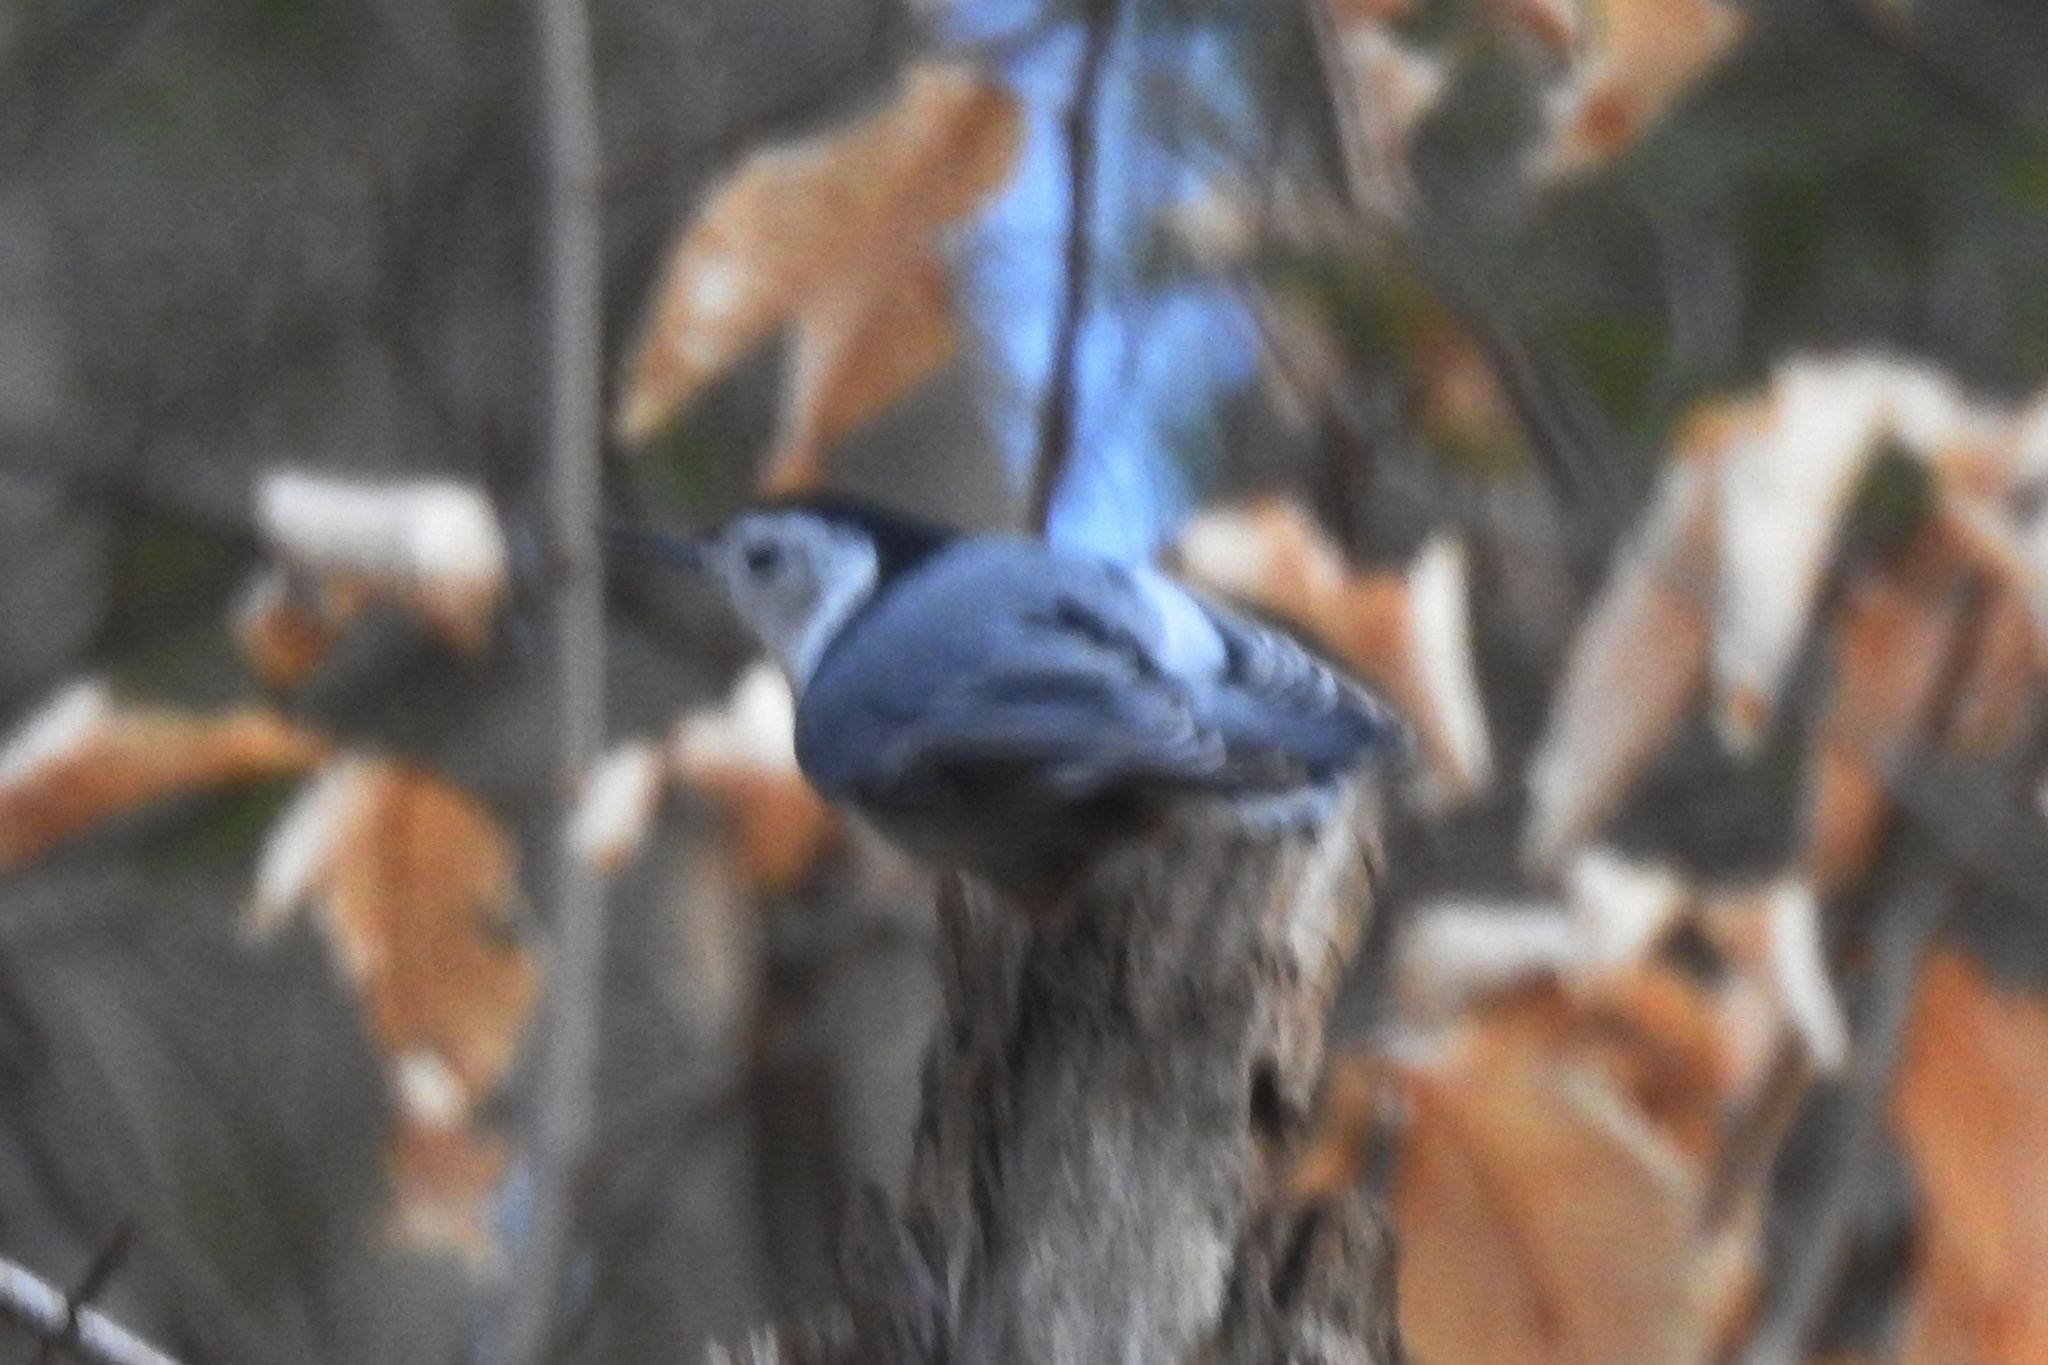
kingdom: Animalia
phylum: Chordata
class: Aves
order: Passeriformes
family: Sittidae
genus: Sitta
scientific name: Sitta carolinensis
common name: White-breasted nuthatch
